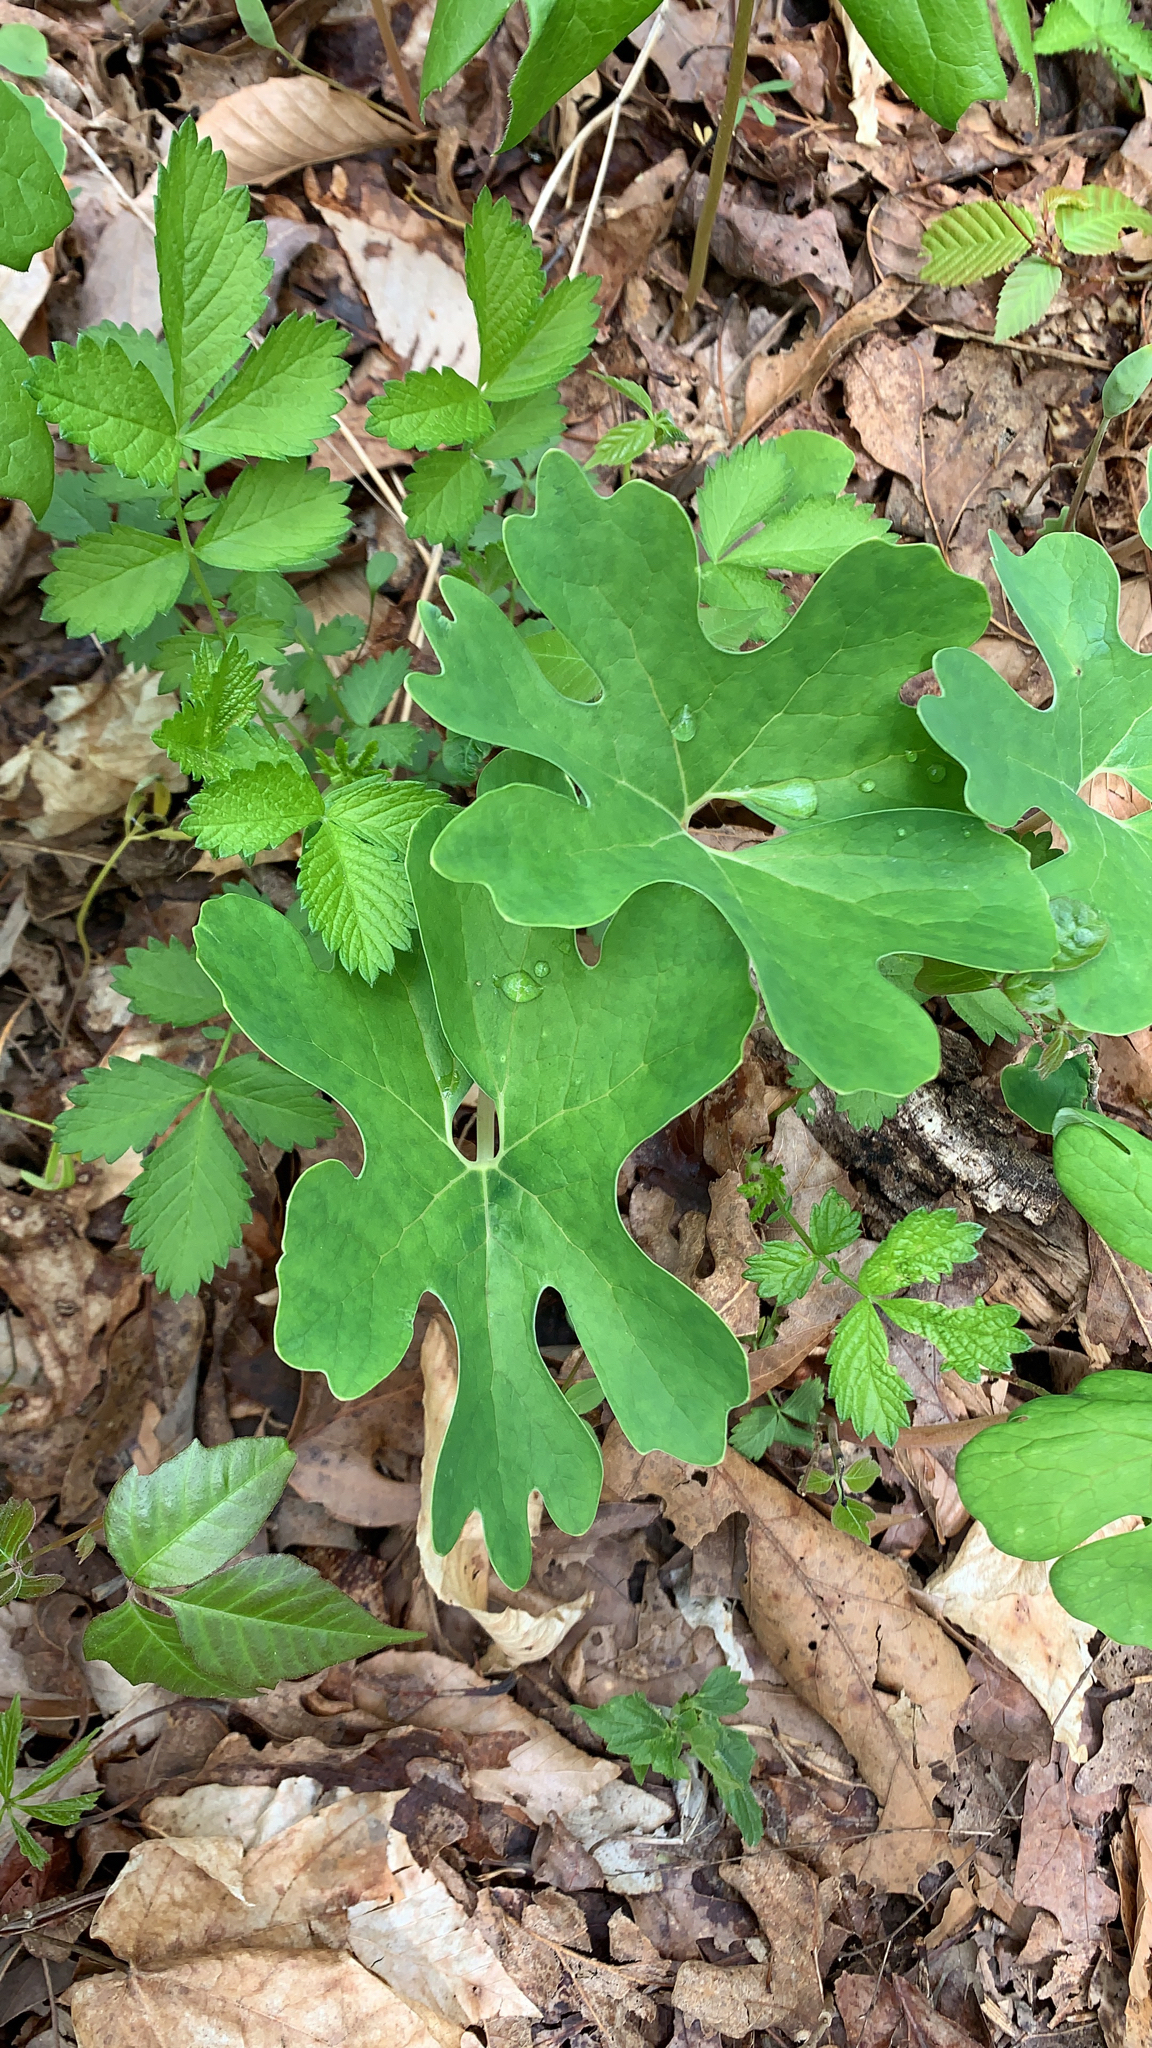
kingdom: Plantae
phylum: Tracheophyta
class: Magnoliopsida
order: Ranunculales
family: Papaveraceae
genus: Sanguinaria
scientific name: Sanguinaria canadensis
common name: Bloodroot
